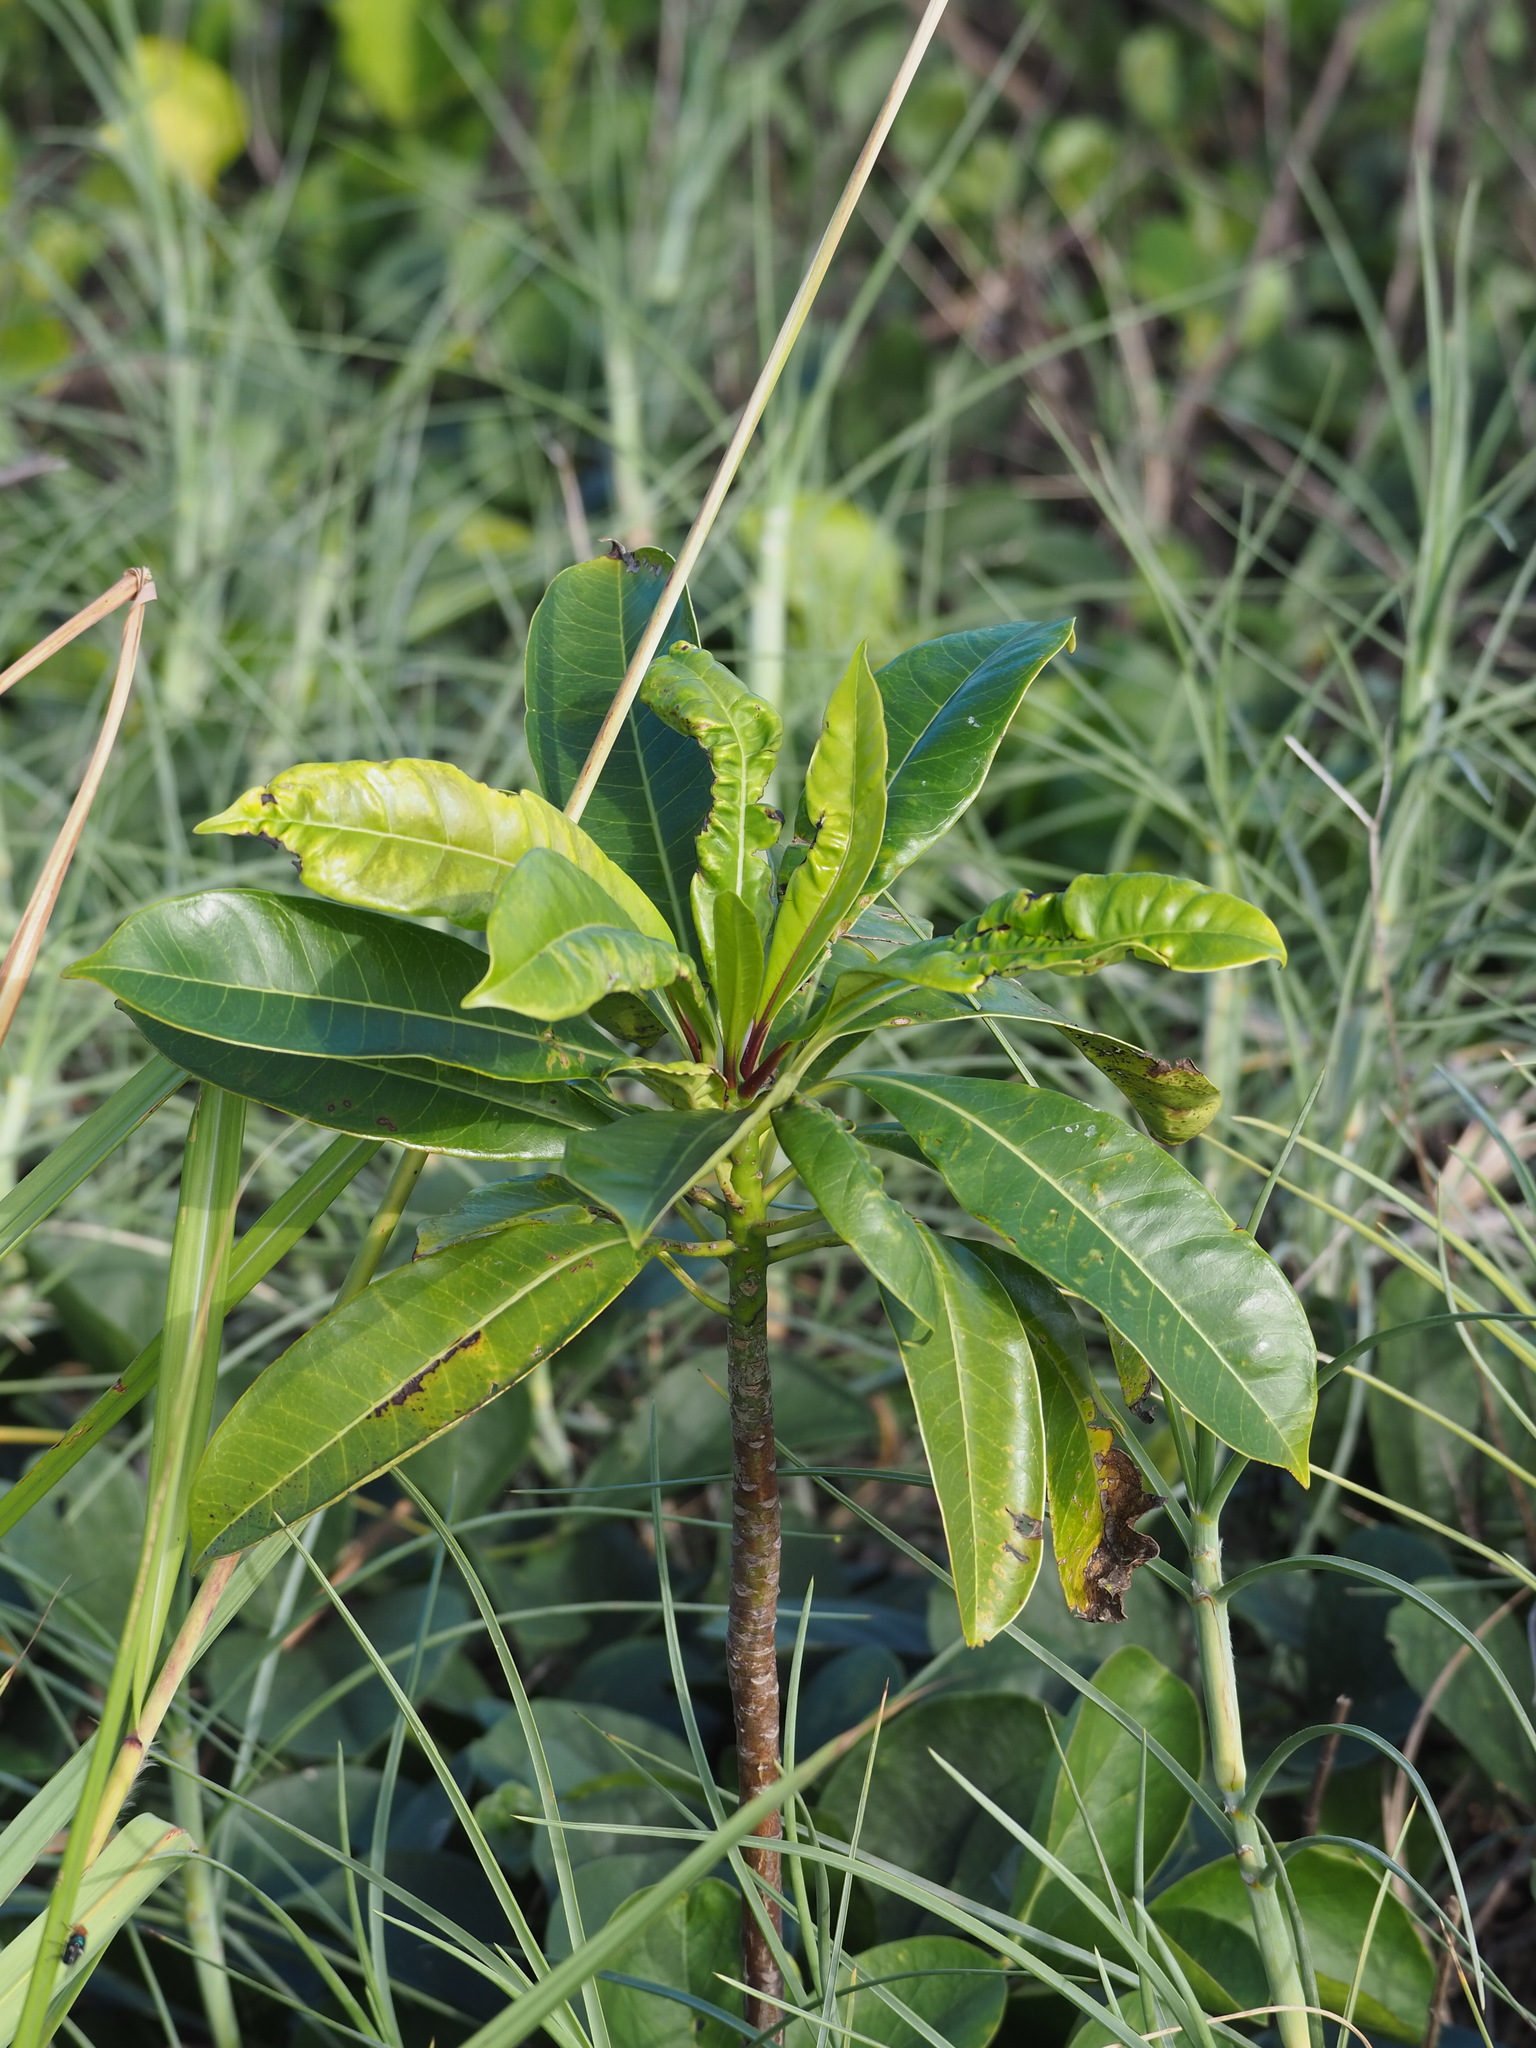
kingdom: Plantae
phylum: Tracheophyta
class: Magnoliopsida
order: Gentianales
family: Apocynaceae
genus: Cerbera
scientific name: Cerbera manghas
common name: Reva
